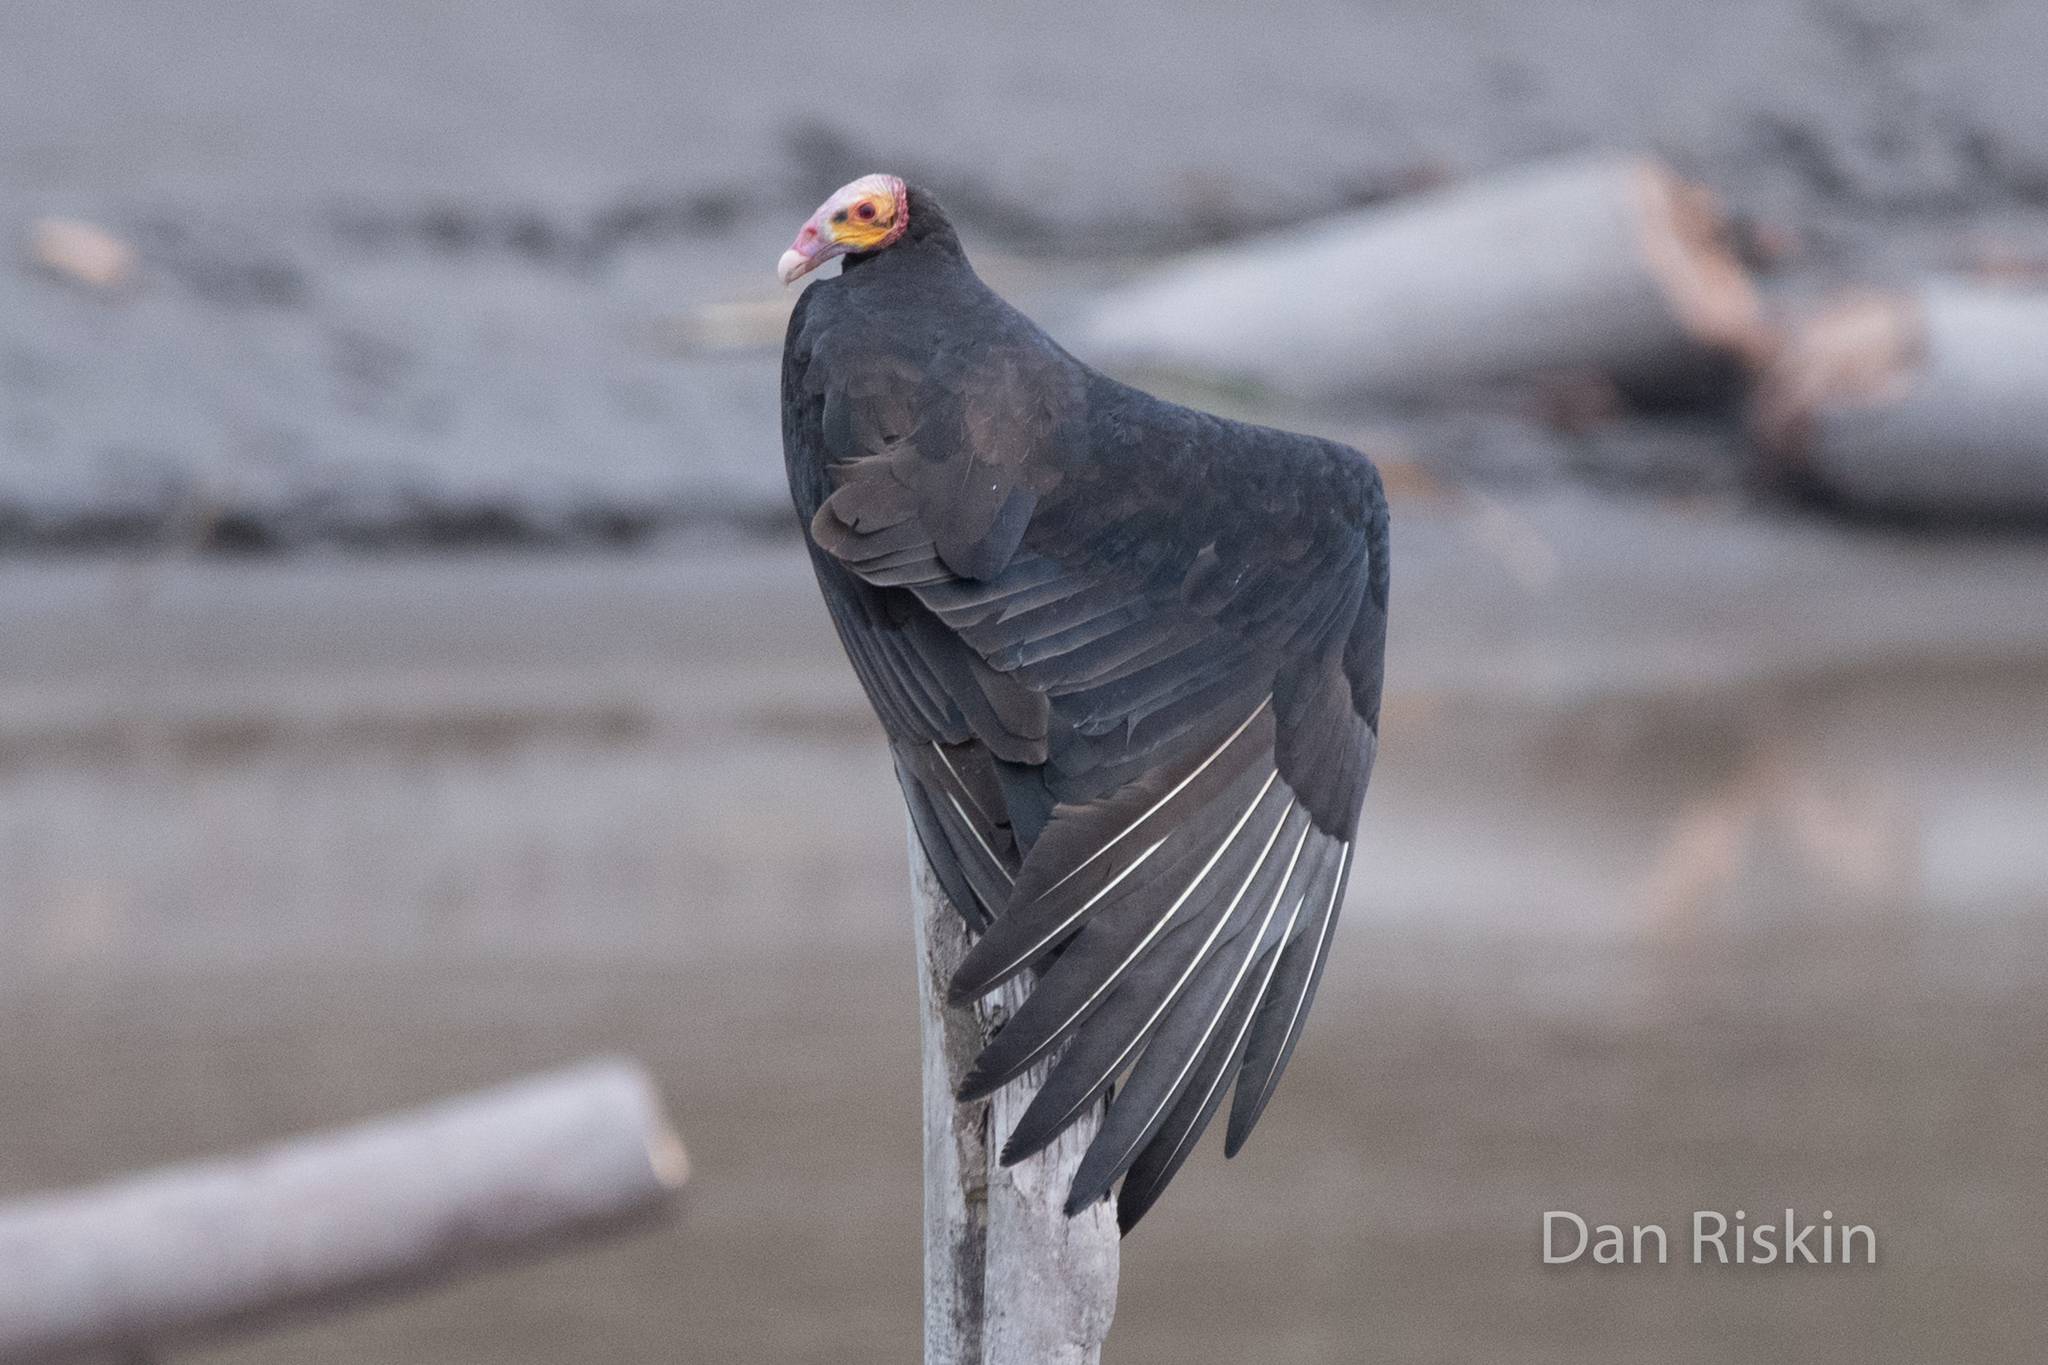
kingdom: Animalia
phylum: Chordata
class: Aves
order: Accipitriformes
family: Cathartidae
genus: Cathartes
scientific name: Cathartes burrovianus
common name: Lesser yellow-headed vulture
